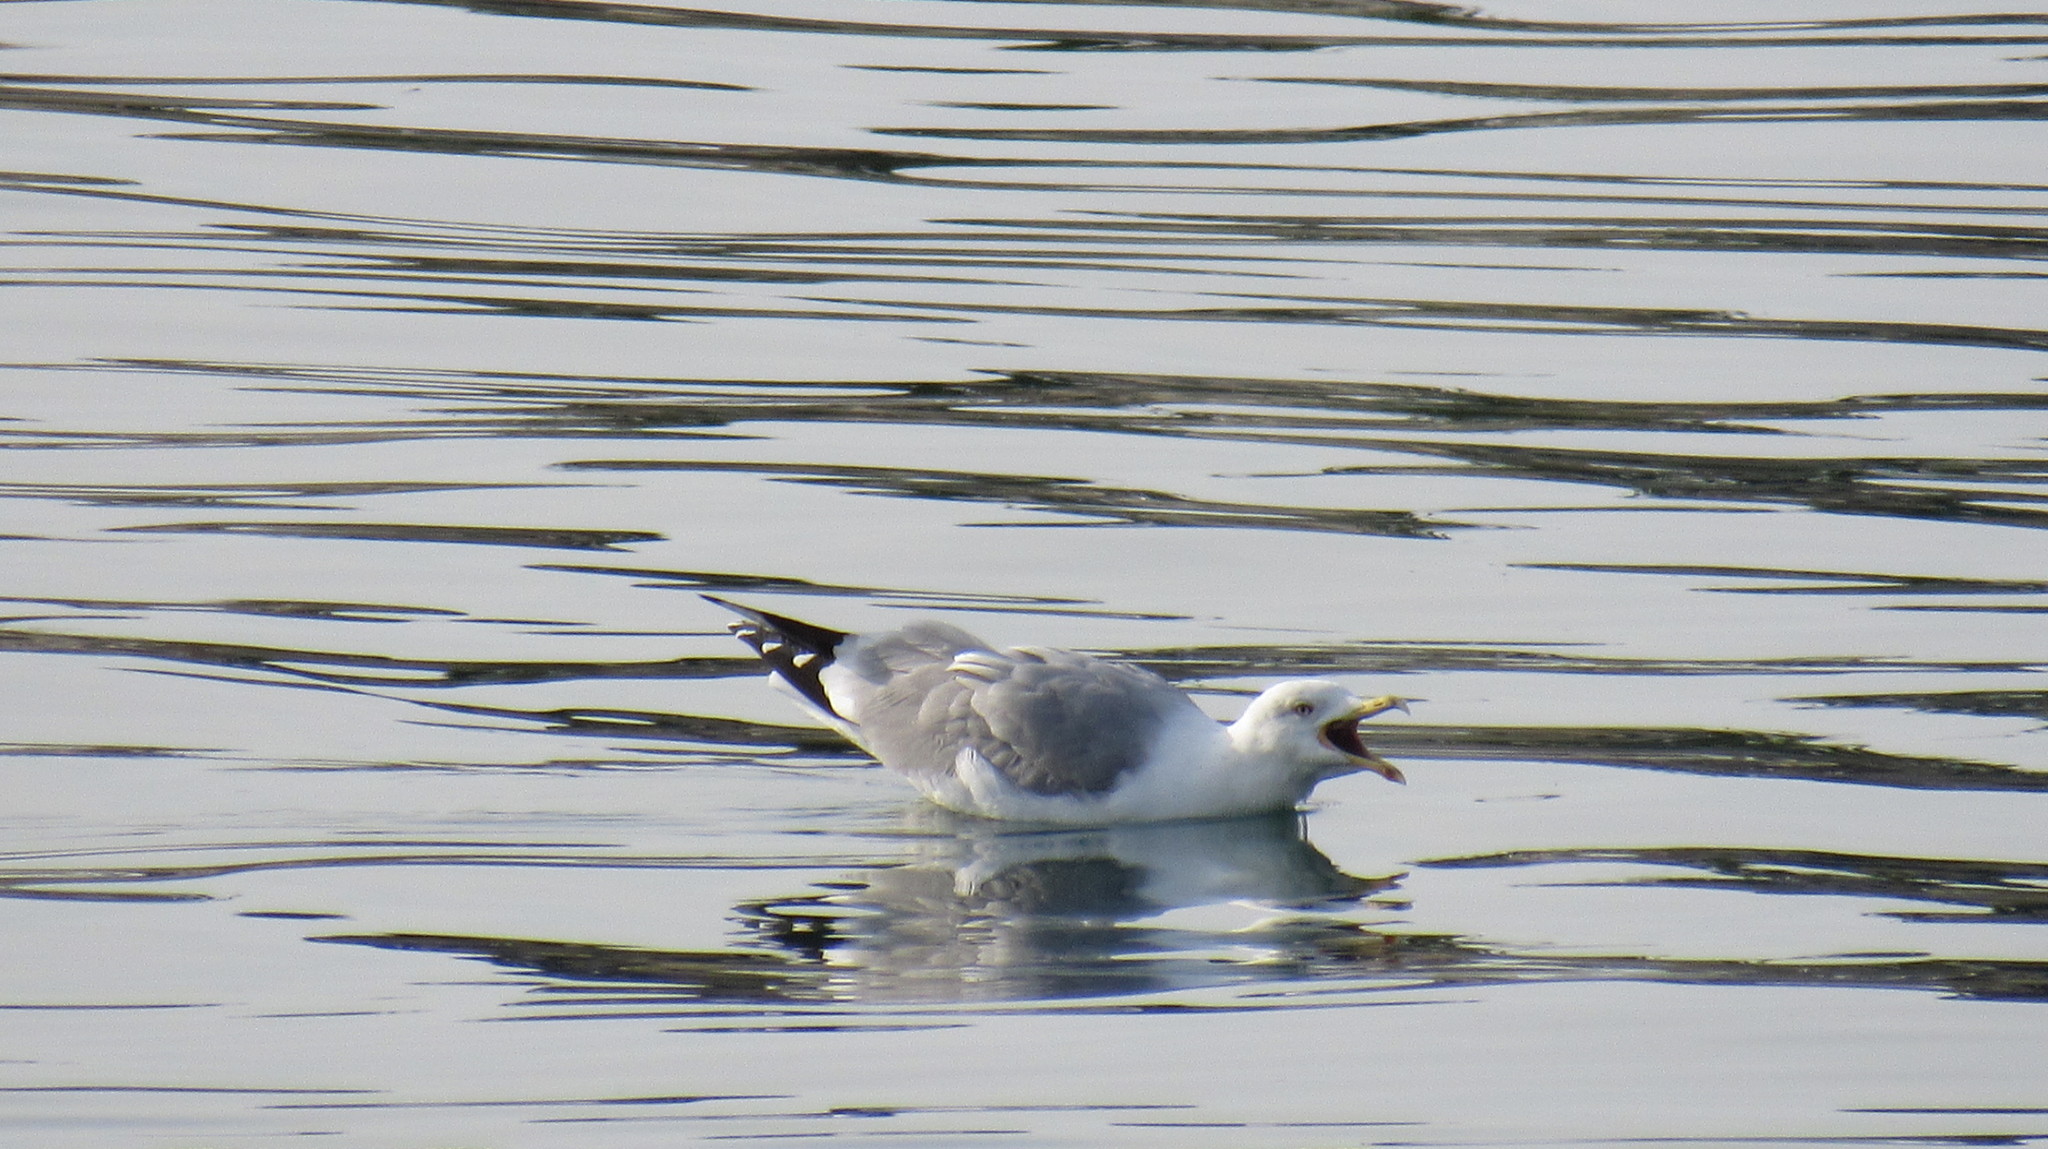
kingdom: Animalia
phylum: Chordata
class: Aves
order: Charadriiformes
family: Laridae
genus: Larus
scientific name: Larus michahellis
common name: Yellow-legged gull
